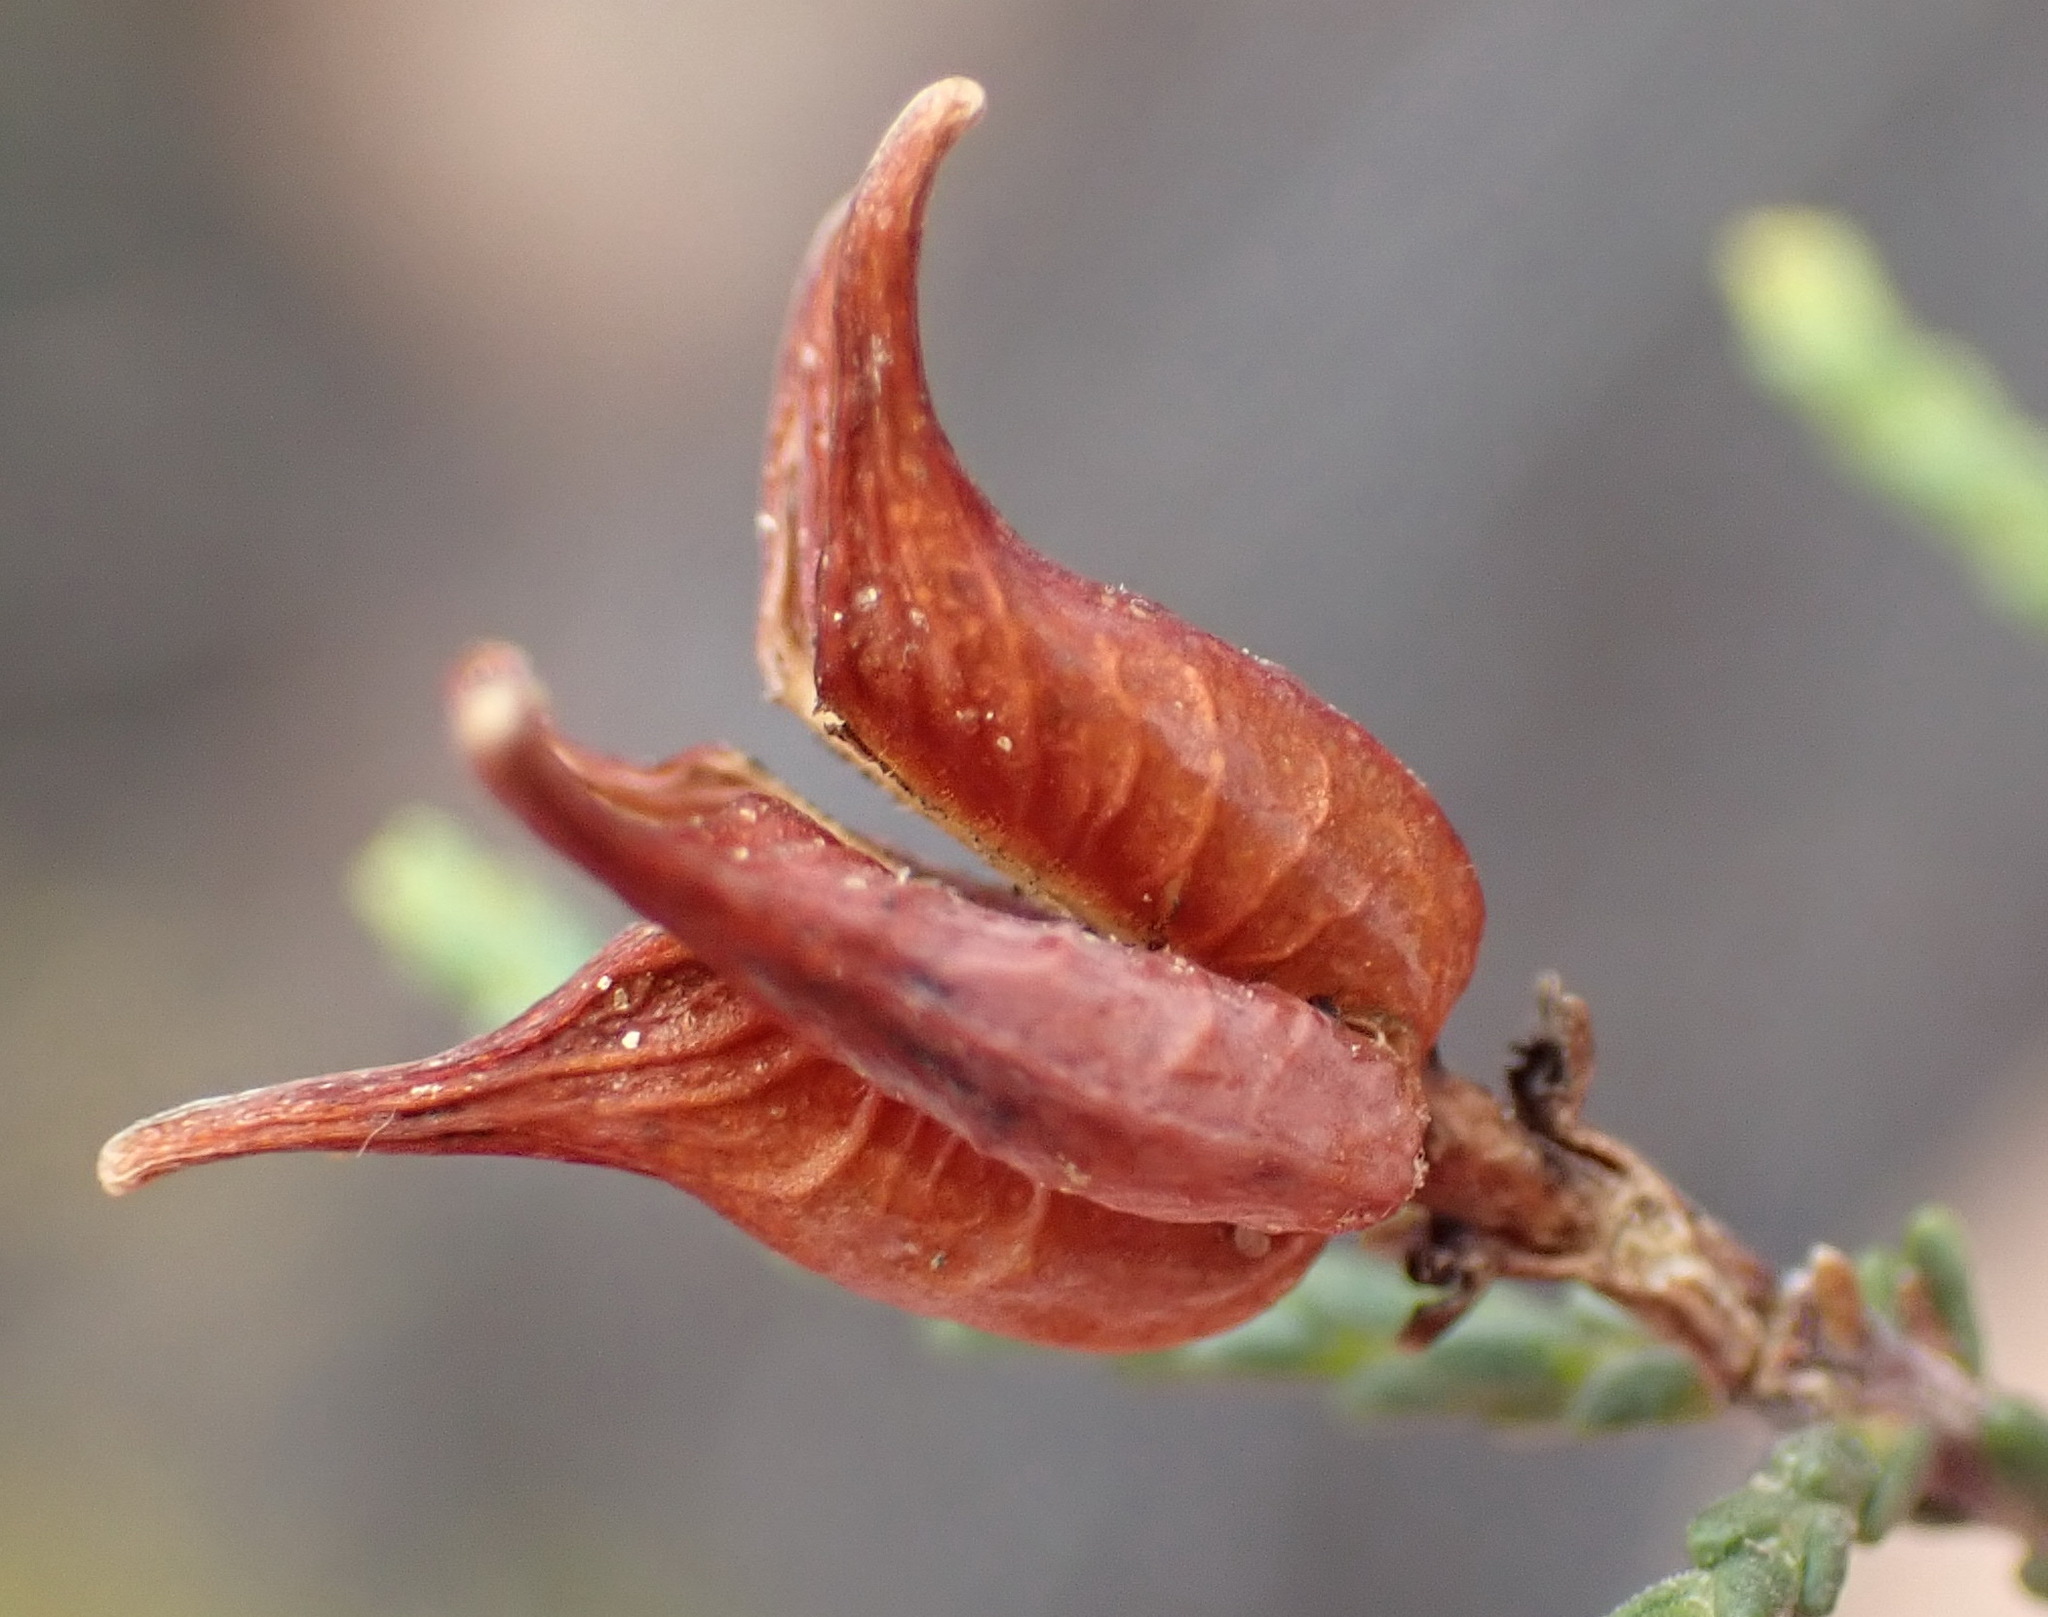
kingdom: Plantae
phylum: Tracheophyta
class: Magnoliopsida
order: Sapindales
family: Rutaceae
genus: Diosma
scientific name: Diosma prama
